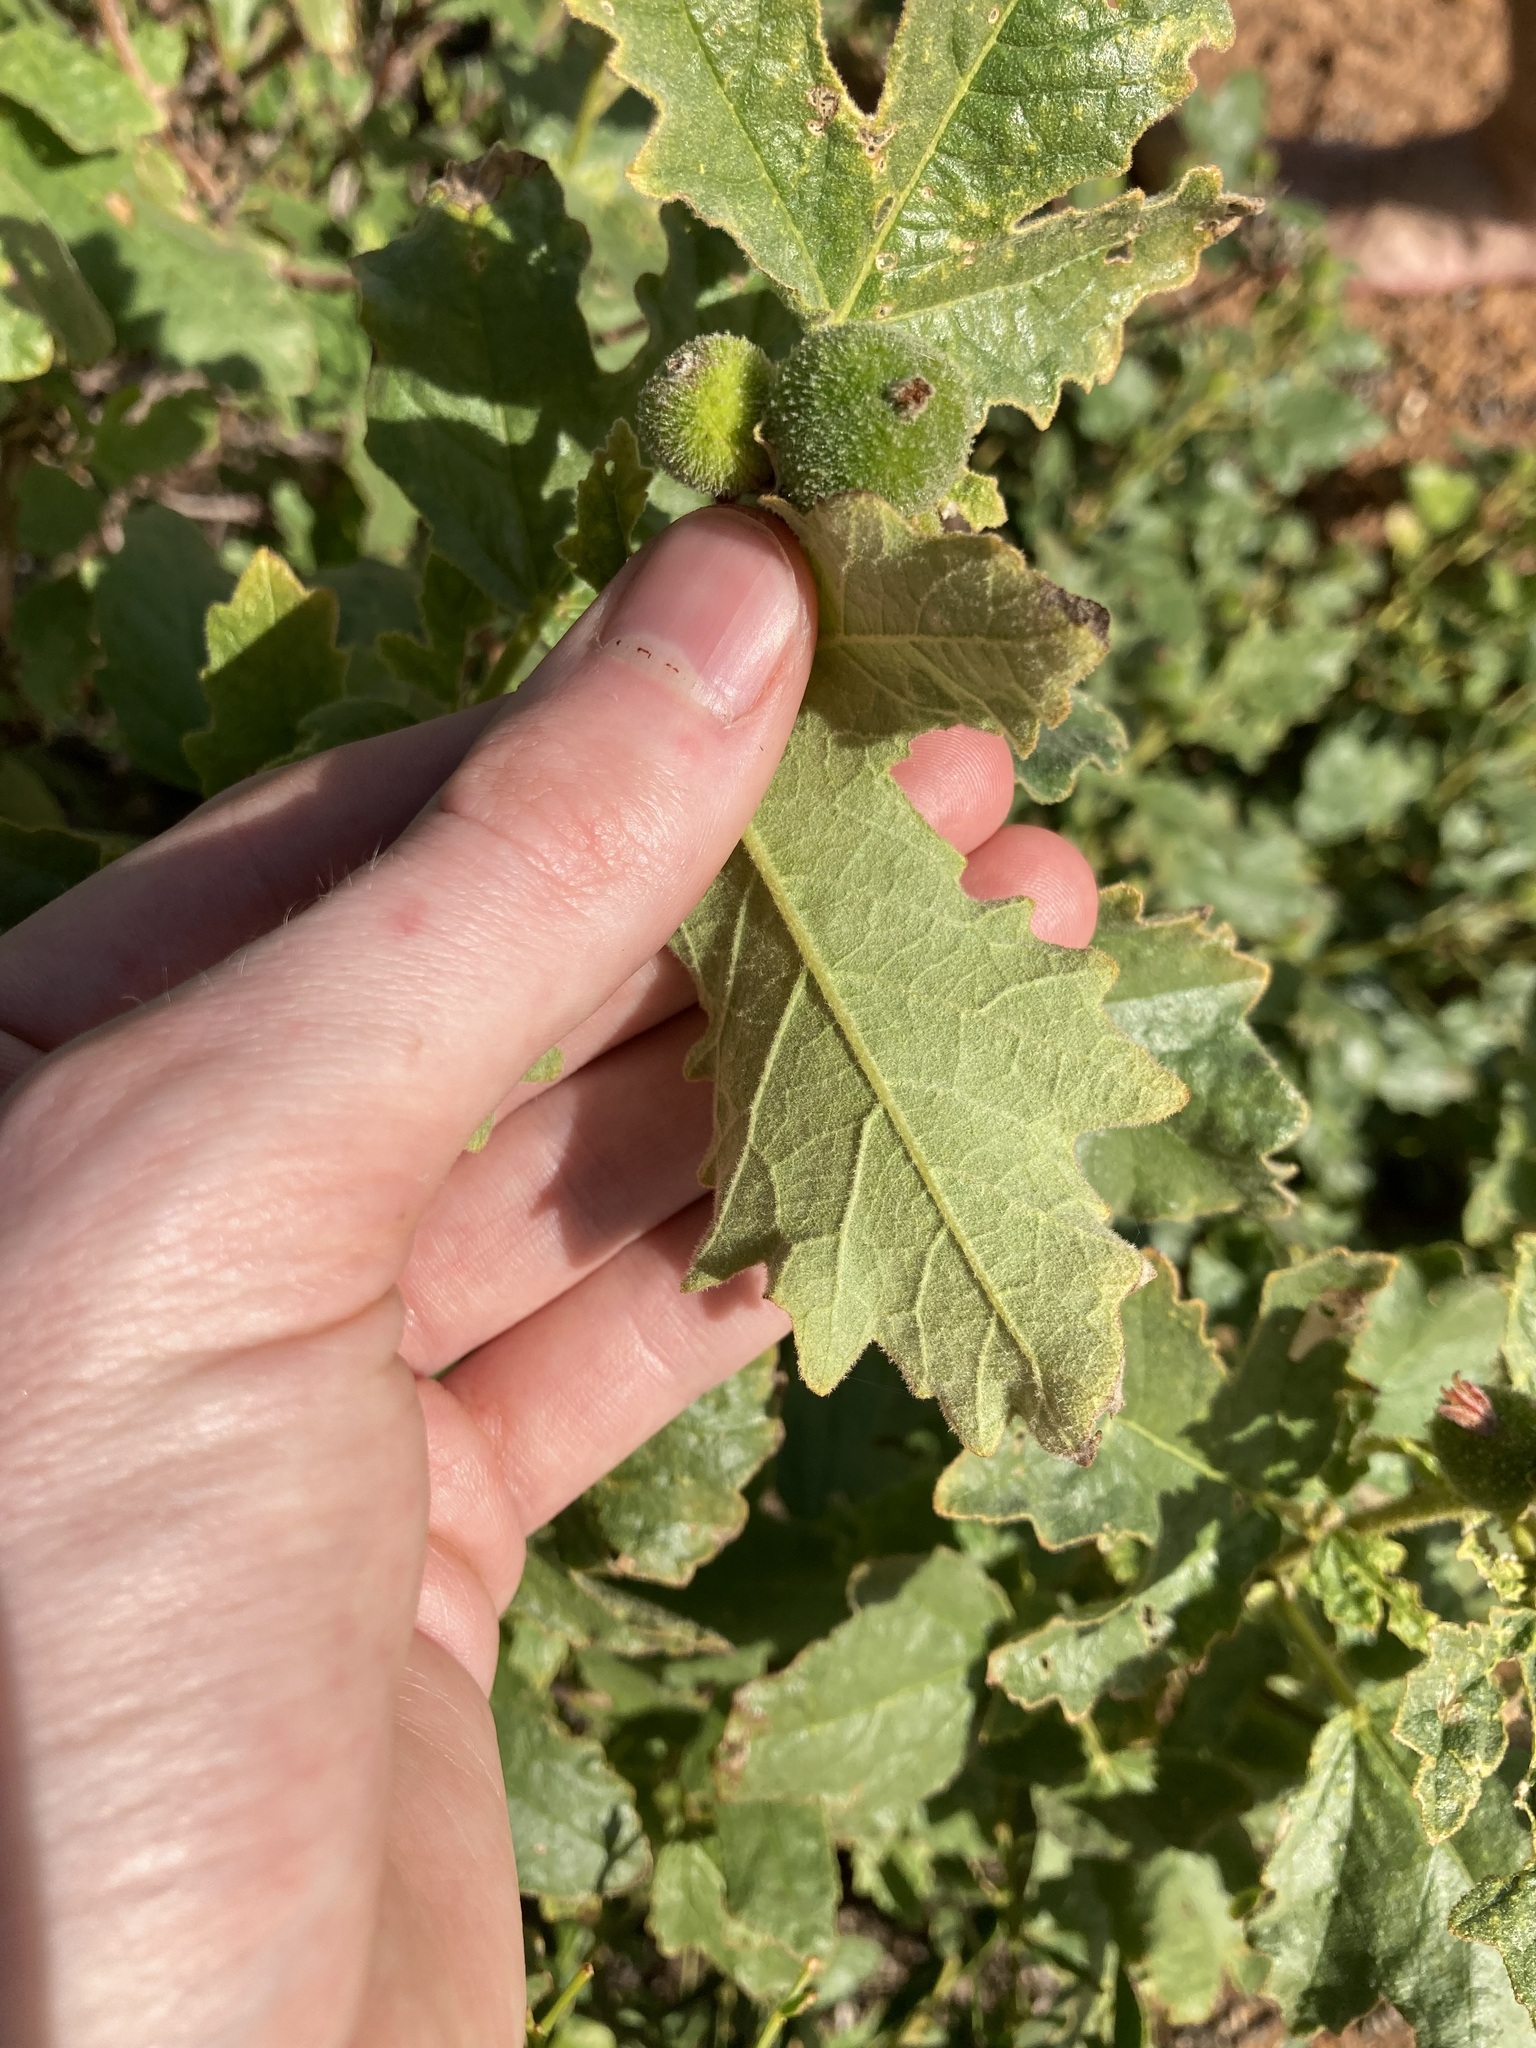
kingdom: Plantae
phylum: Tracheophyta
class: Magnoliopsida
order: Malpighiales
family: Euphorbiaceae
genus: Adriana
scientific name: Adriana tomentosa
